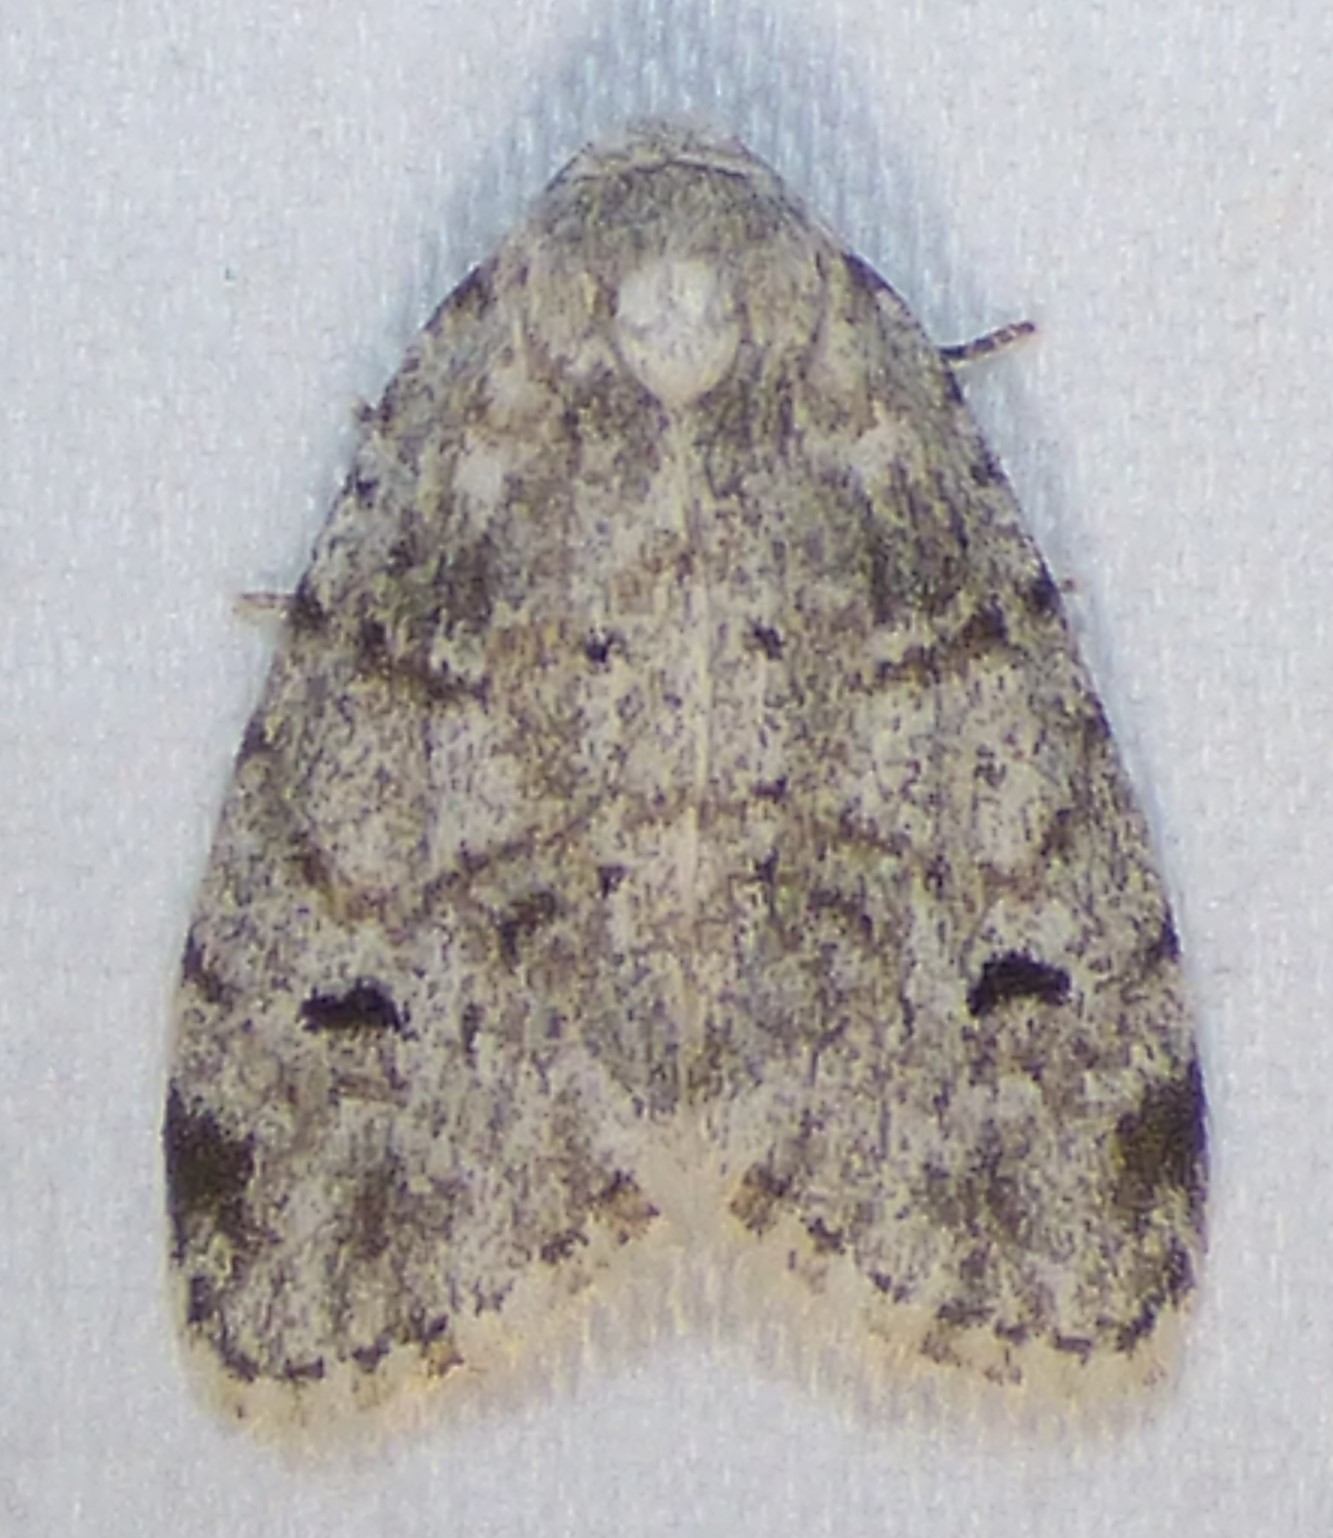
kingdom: Animalia
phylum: Arthropoda
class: Insecta
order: Lepidoptera
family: Erebidae
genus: Clemensia
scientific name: Clemensia albata
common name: Little white lichen moth
